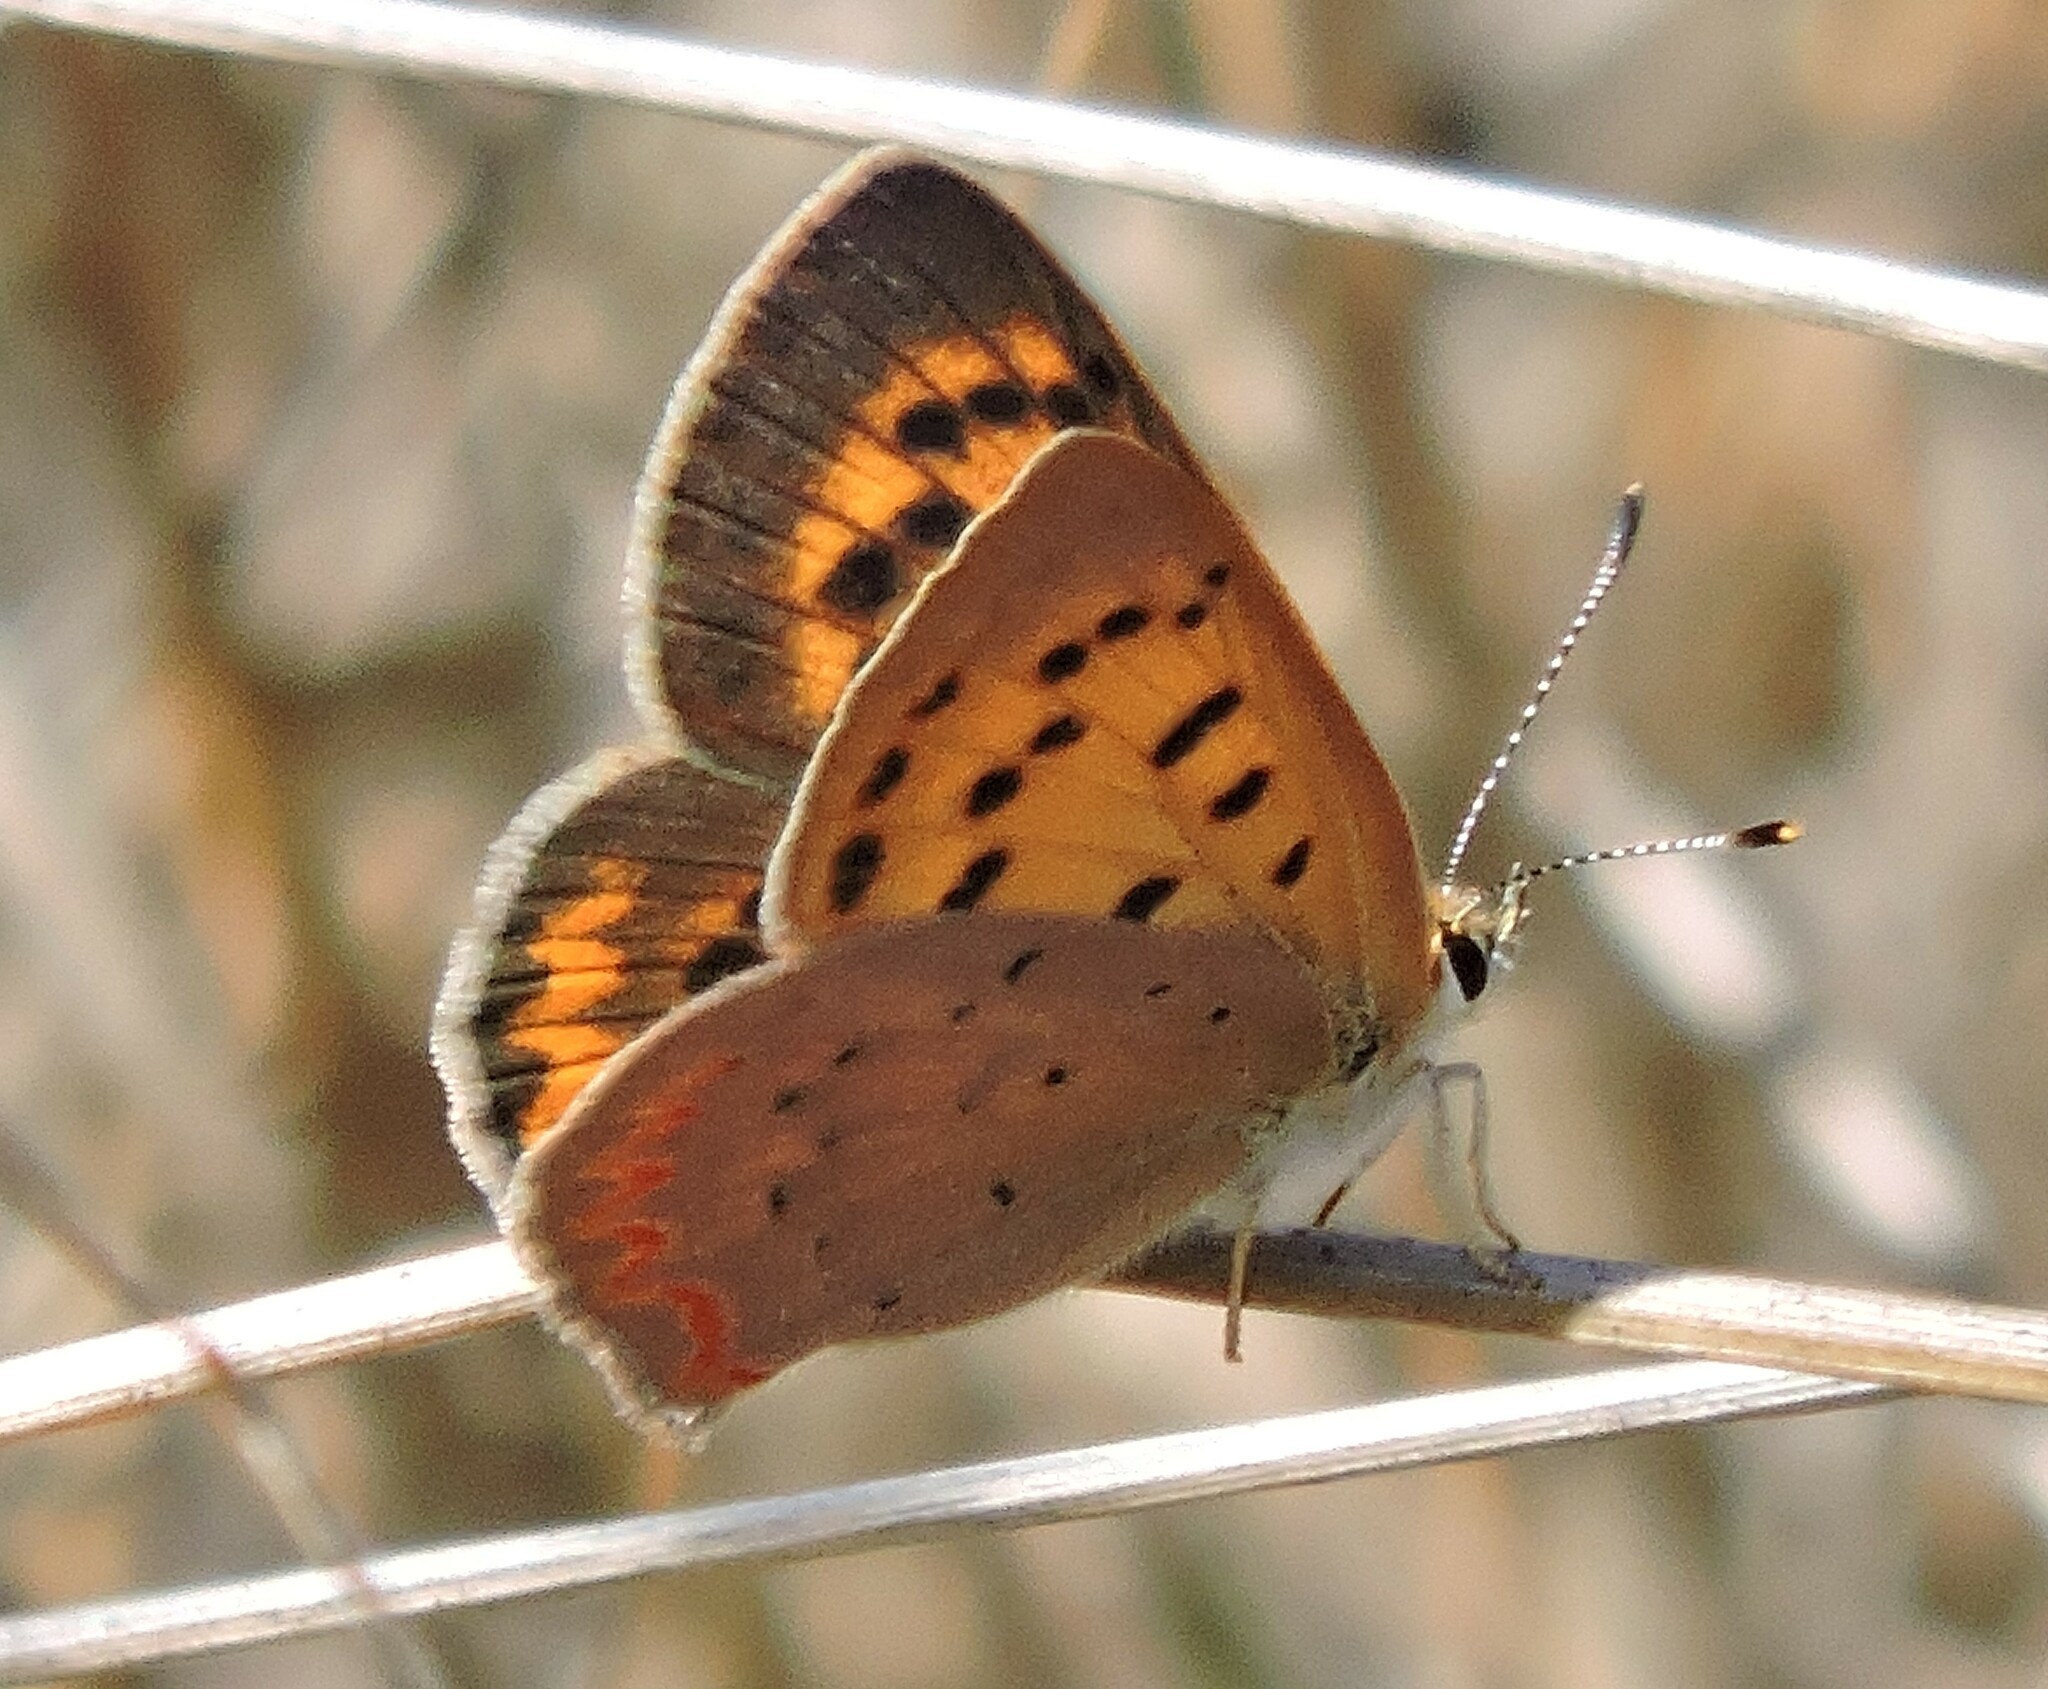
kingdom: Animalia
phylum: Arthropoda
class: Insecta
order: Lepidoptera
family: Lycaenidae
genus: Tharsalea
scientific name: Tharsalea helloides
